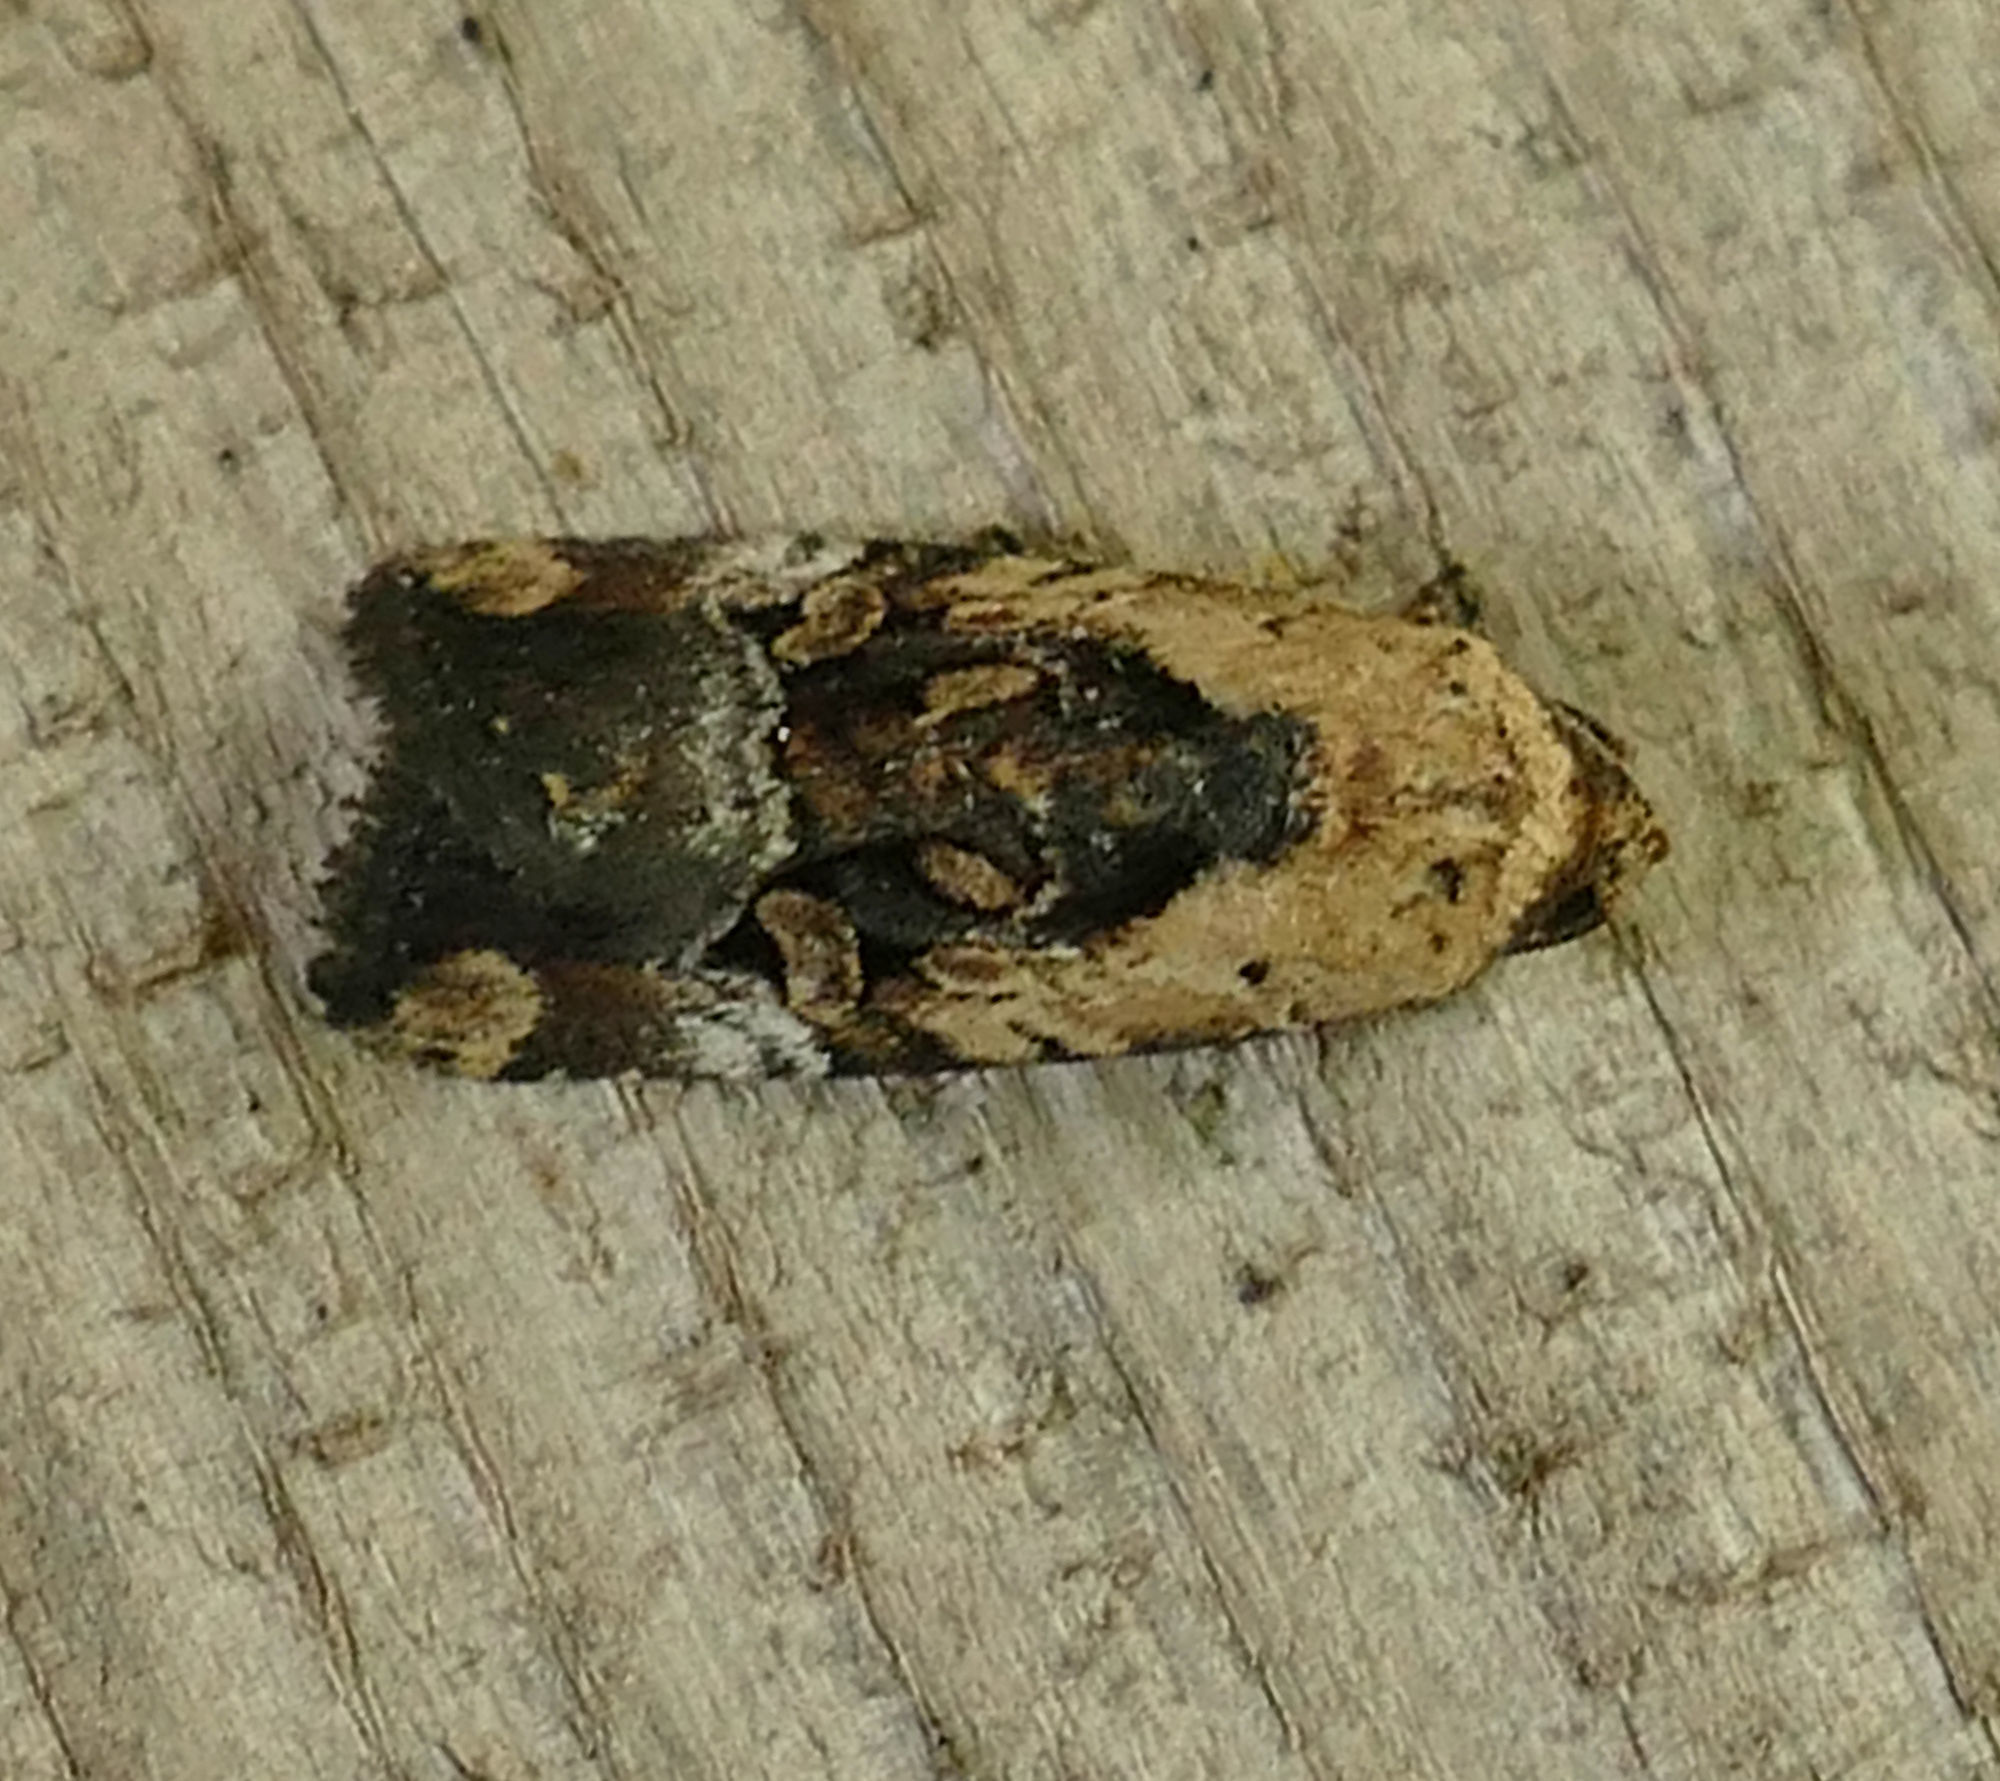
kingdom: Animalia
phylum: Arthropoda
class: Insecta
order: Lepidoptera
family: Noctuidae
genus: Elaphria
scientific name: Elaphria chalcedonia
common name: Chalcedony midget
